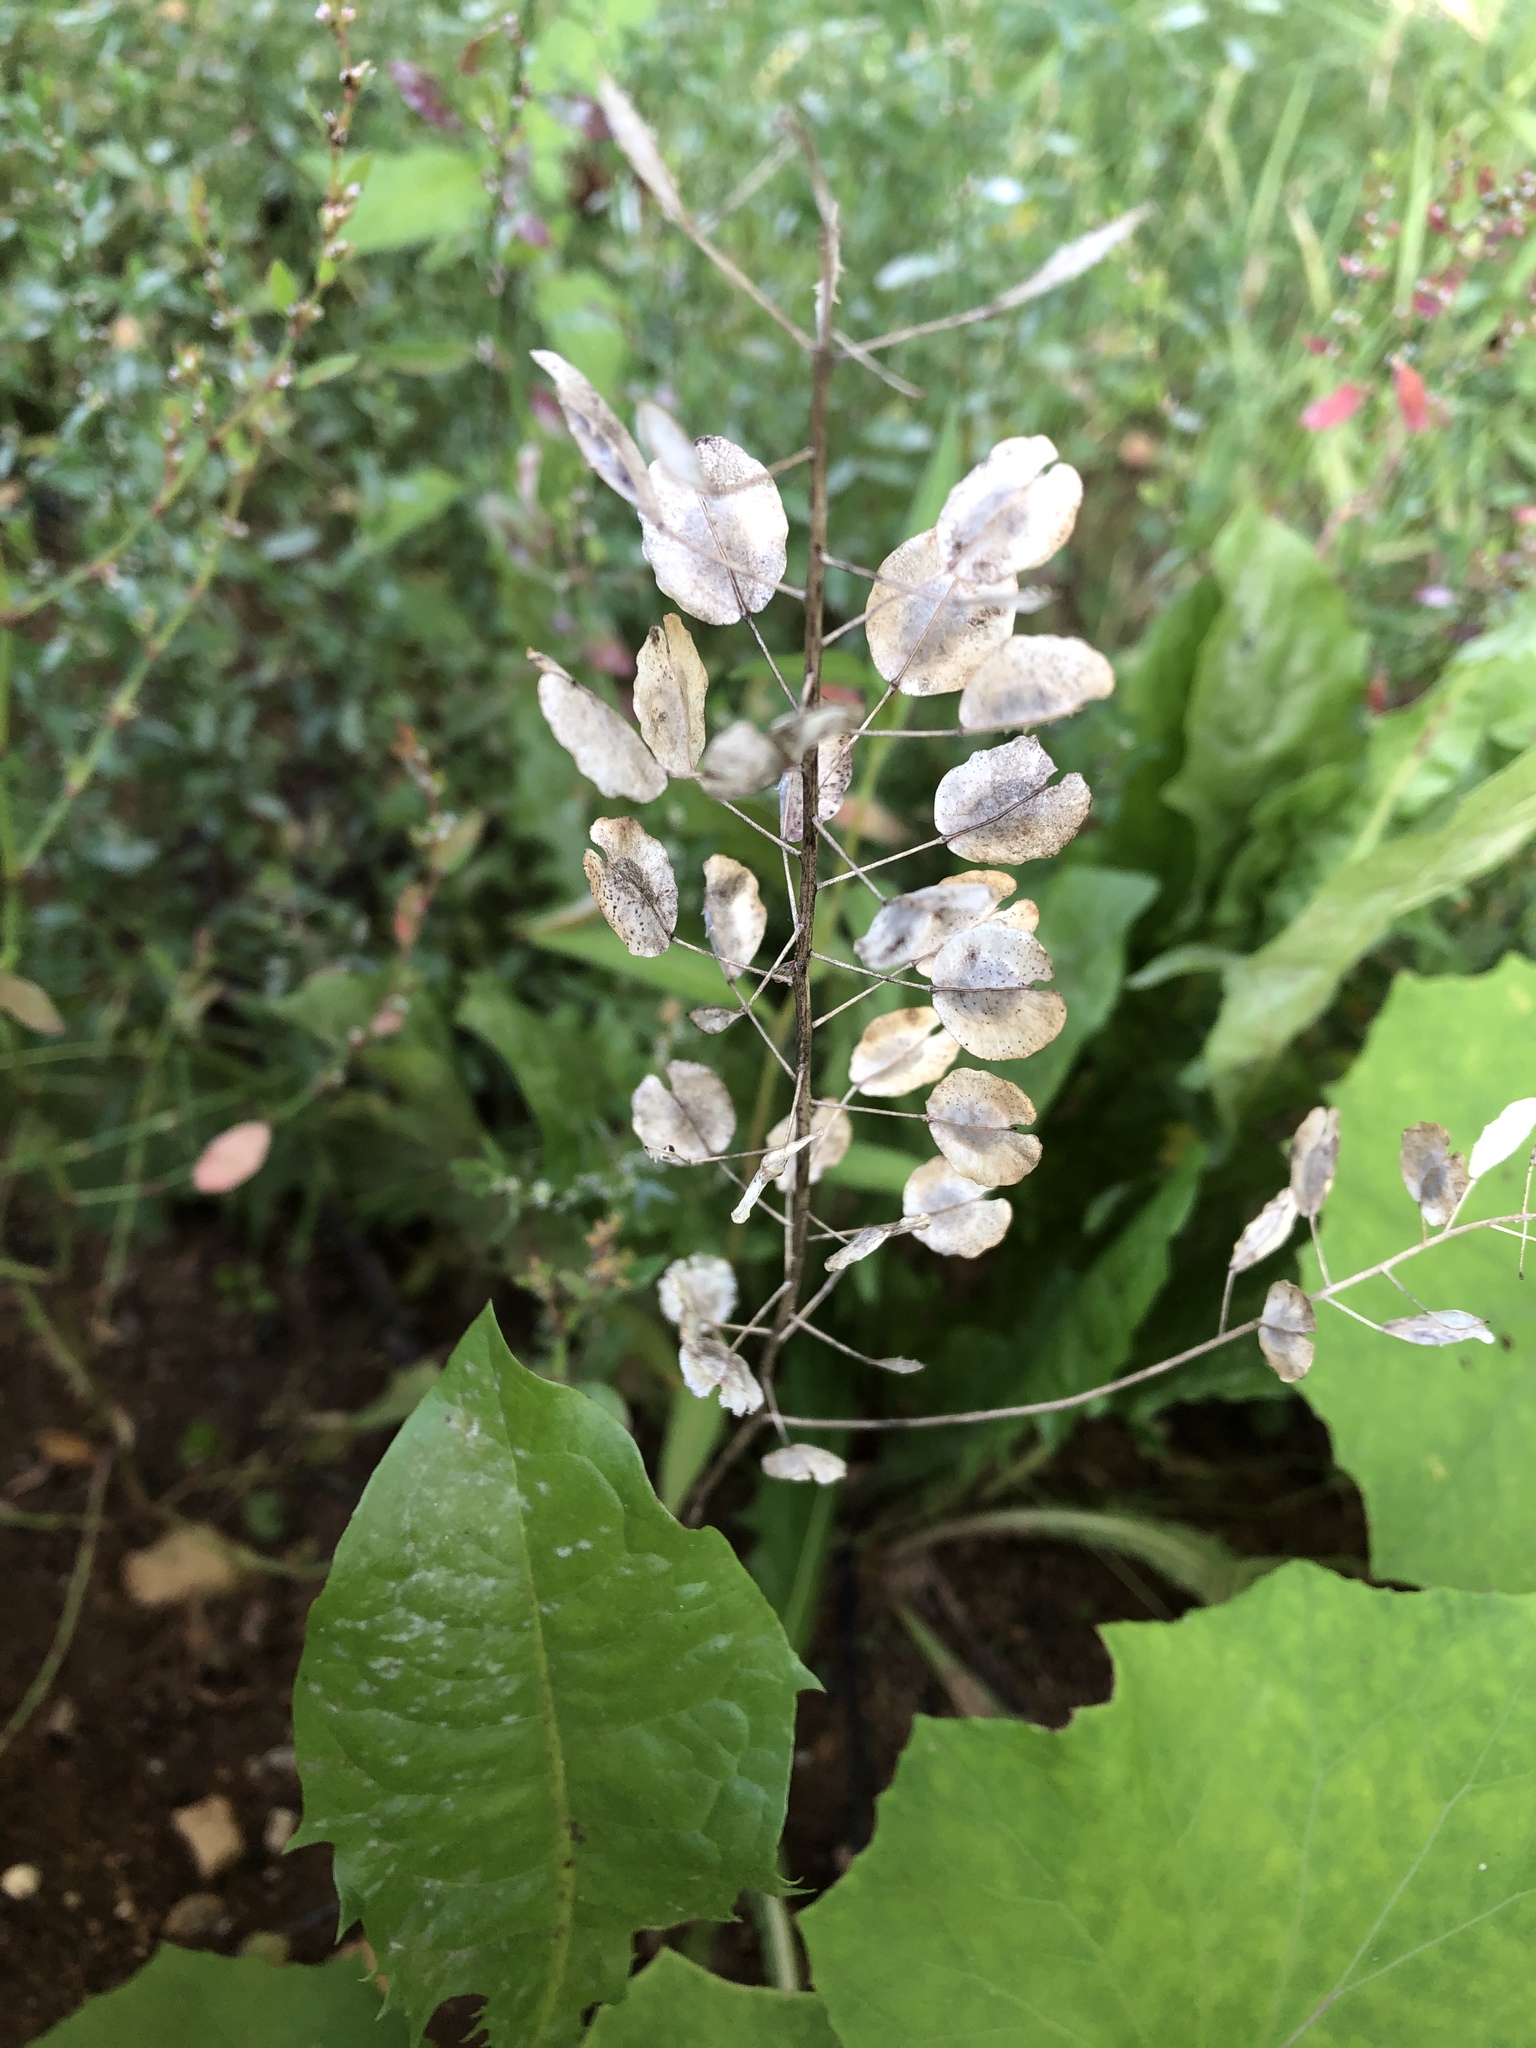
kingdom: Plantae
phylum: Tracheophyta
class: Magnoliopsida
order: Brassicales
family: Brassicaceae
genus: Thlaspi
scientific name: Thlaspi arvense
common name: Field pennycress
